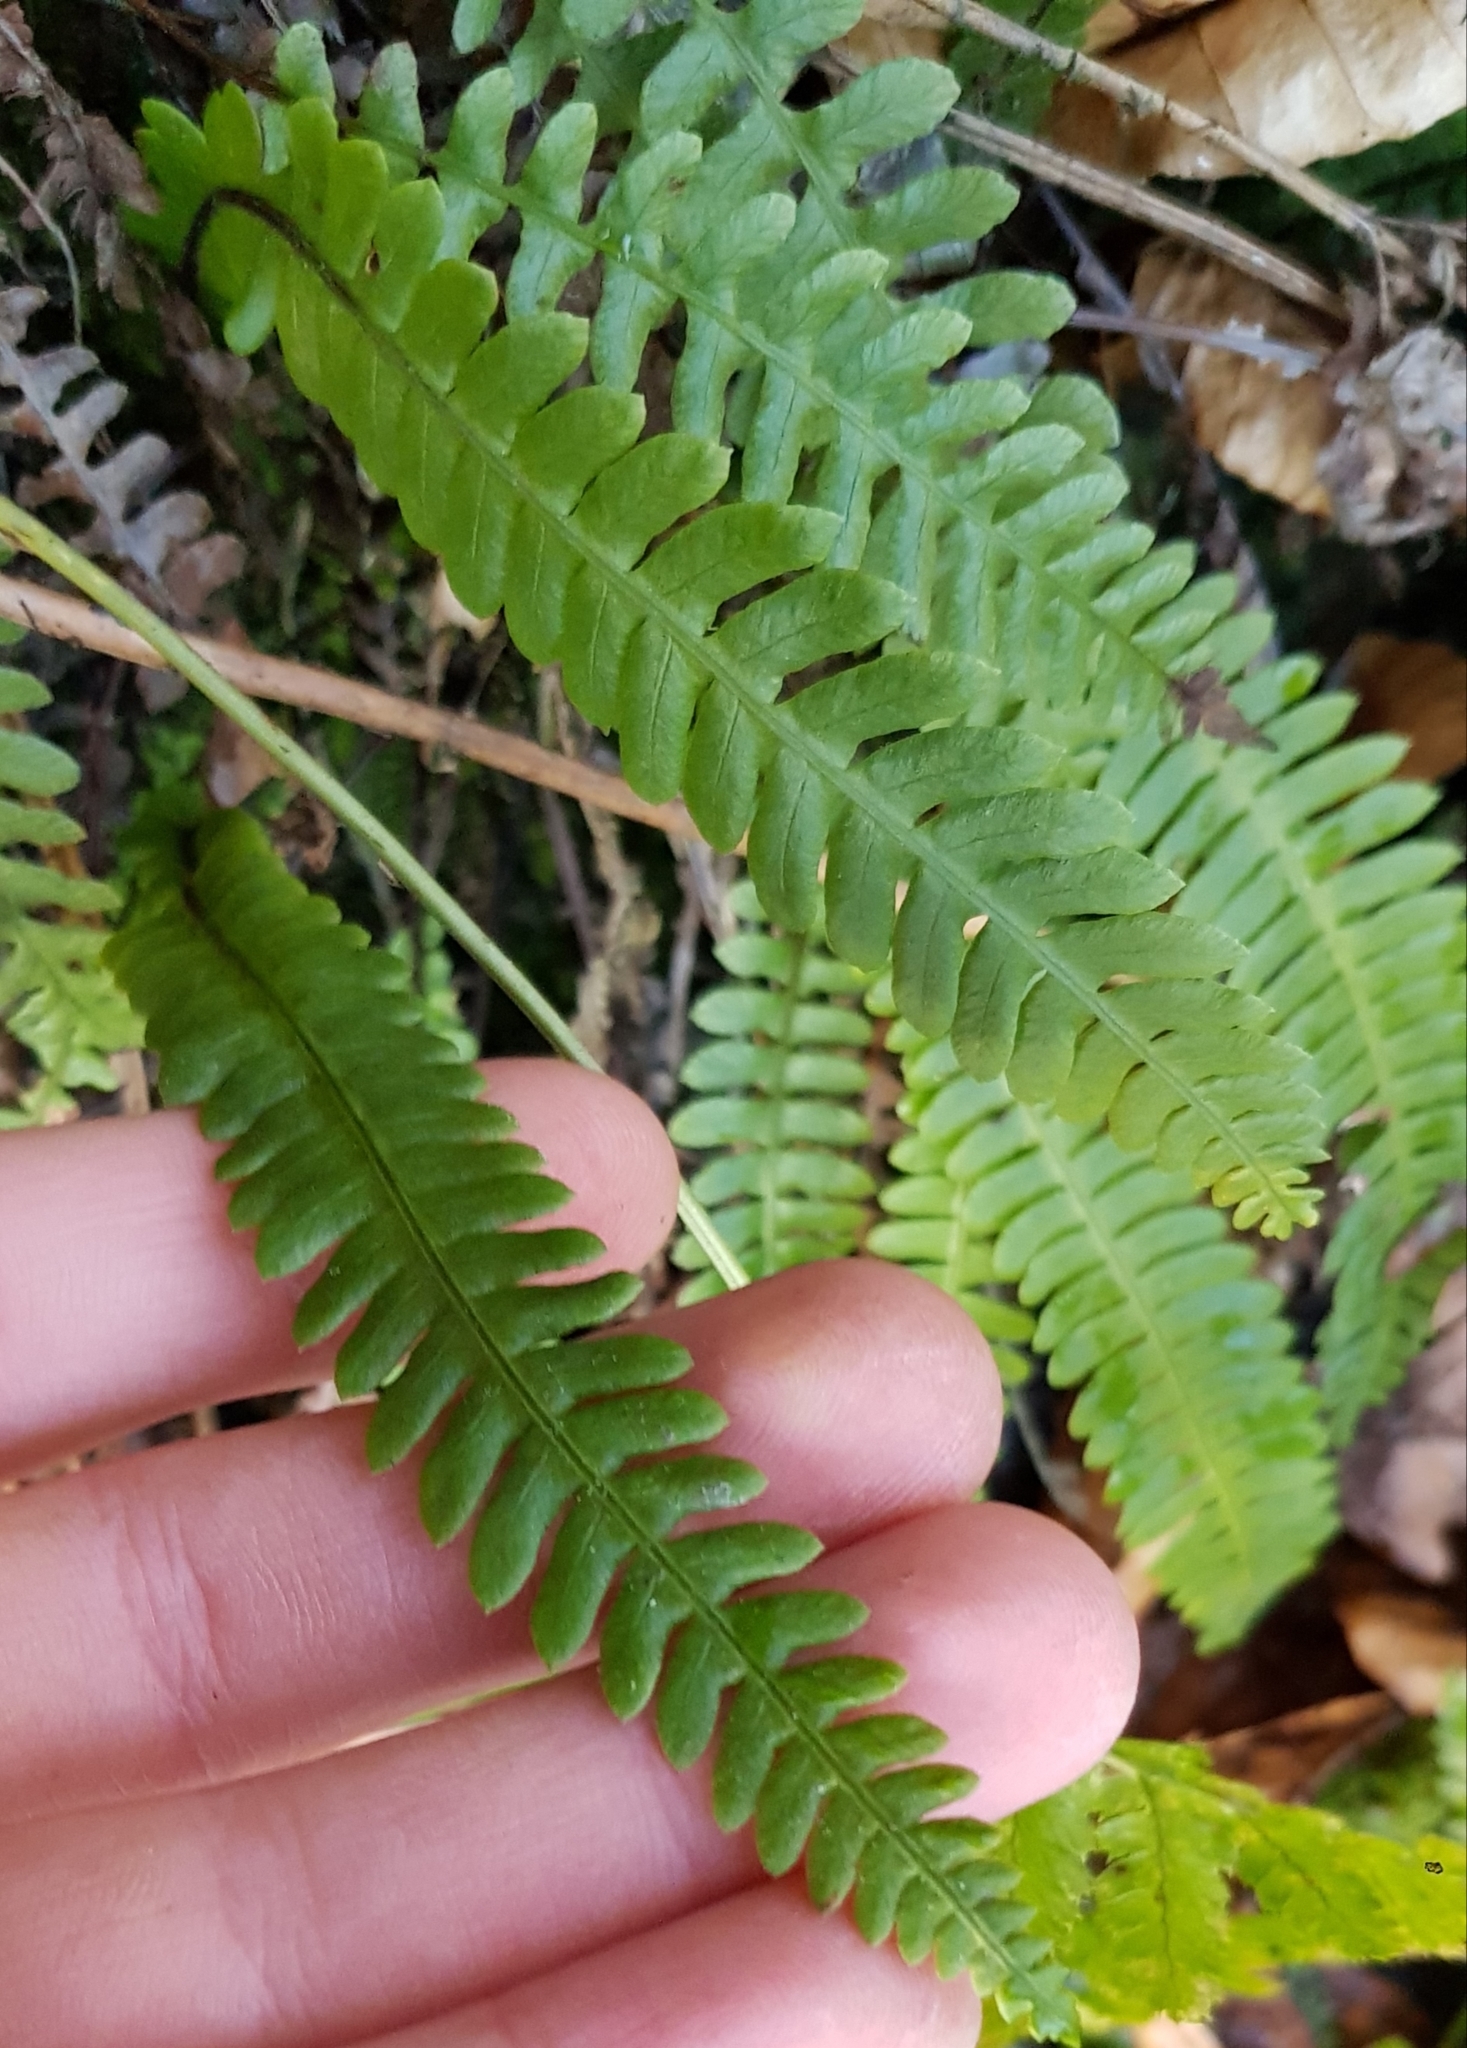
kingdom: Plantae
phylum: Tracheophyta
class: Polypodiopsida
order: Polypodiales
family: Blechnaceae
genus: Struthiopteris
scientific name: Struthiopteris spicant
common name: Deer fern
